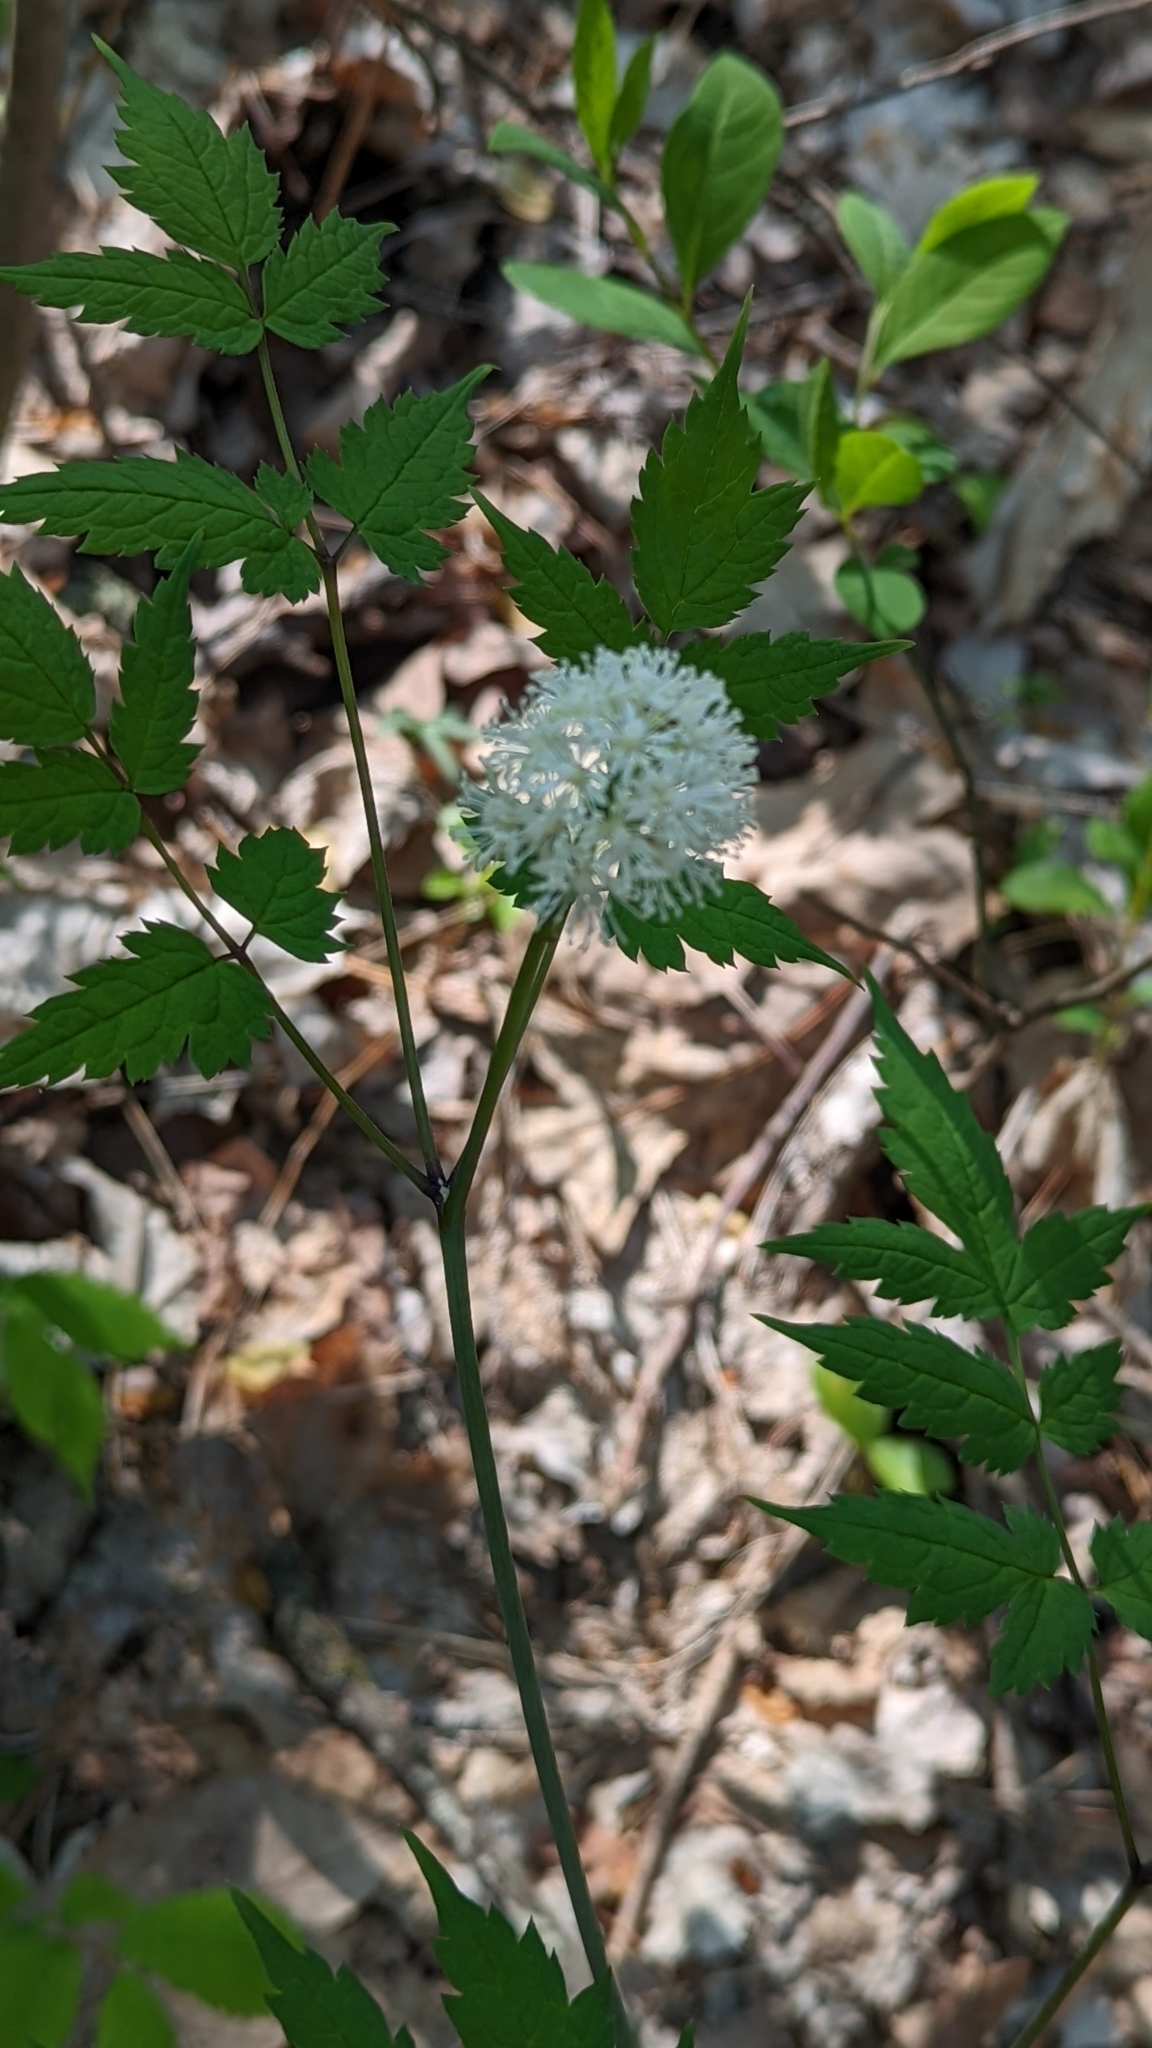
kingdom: Plantae
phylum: Tracheophyta
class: Magnoliopsida
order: Ranunculales
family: Ranunculaceae
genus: Actaea
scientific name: Actaea pachypoda
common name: Doll's-eyes
